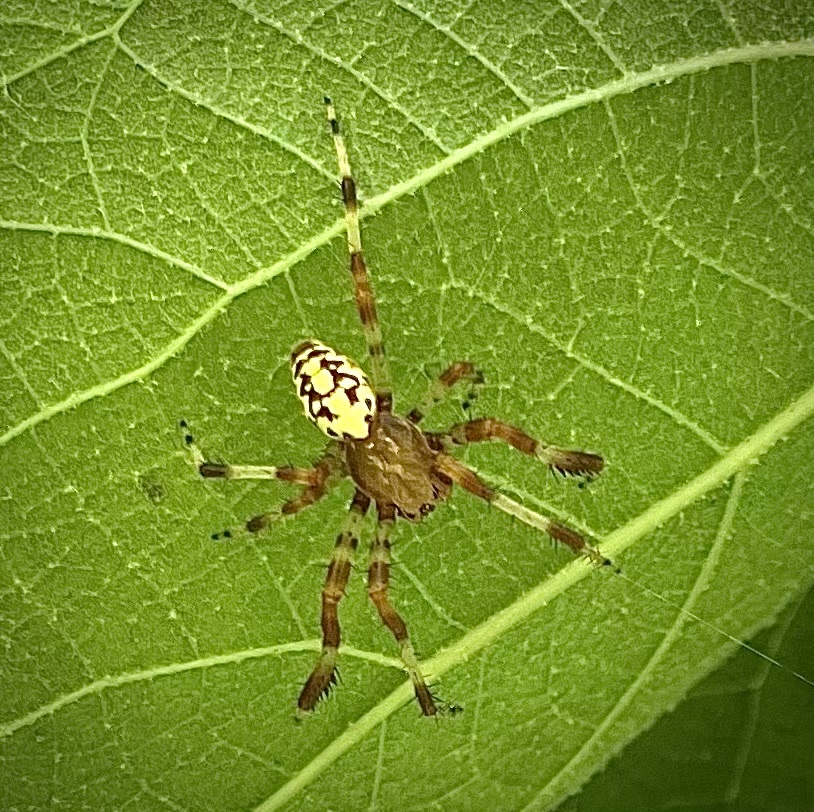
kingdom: Animalia
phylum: Arthropoda
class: Arachnida
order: Araneae
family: Araneidae
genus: Araneus
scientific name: Araneus marmoreus
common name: Marbled orbweaver
